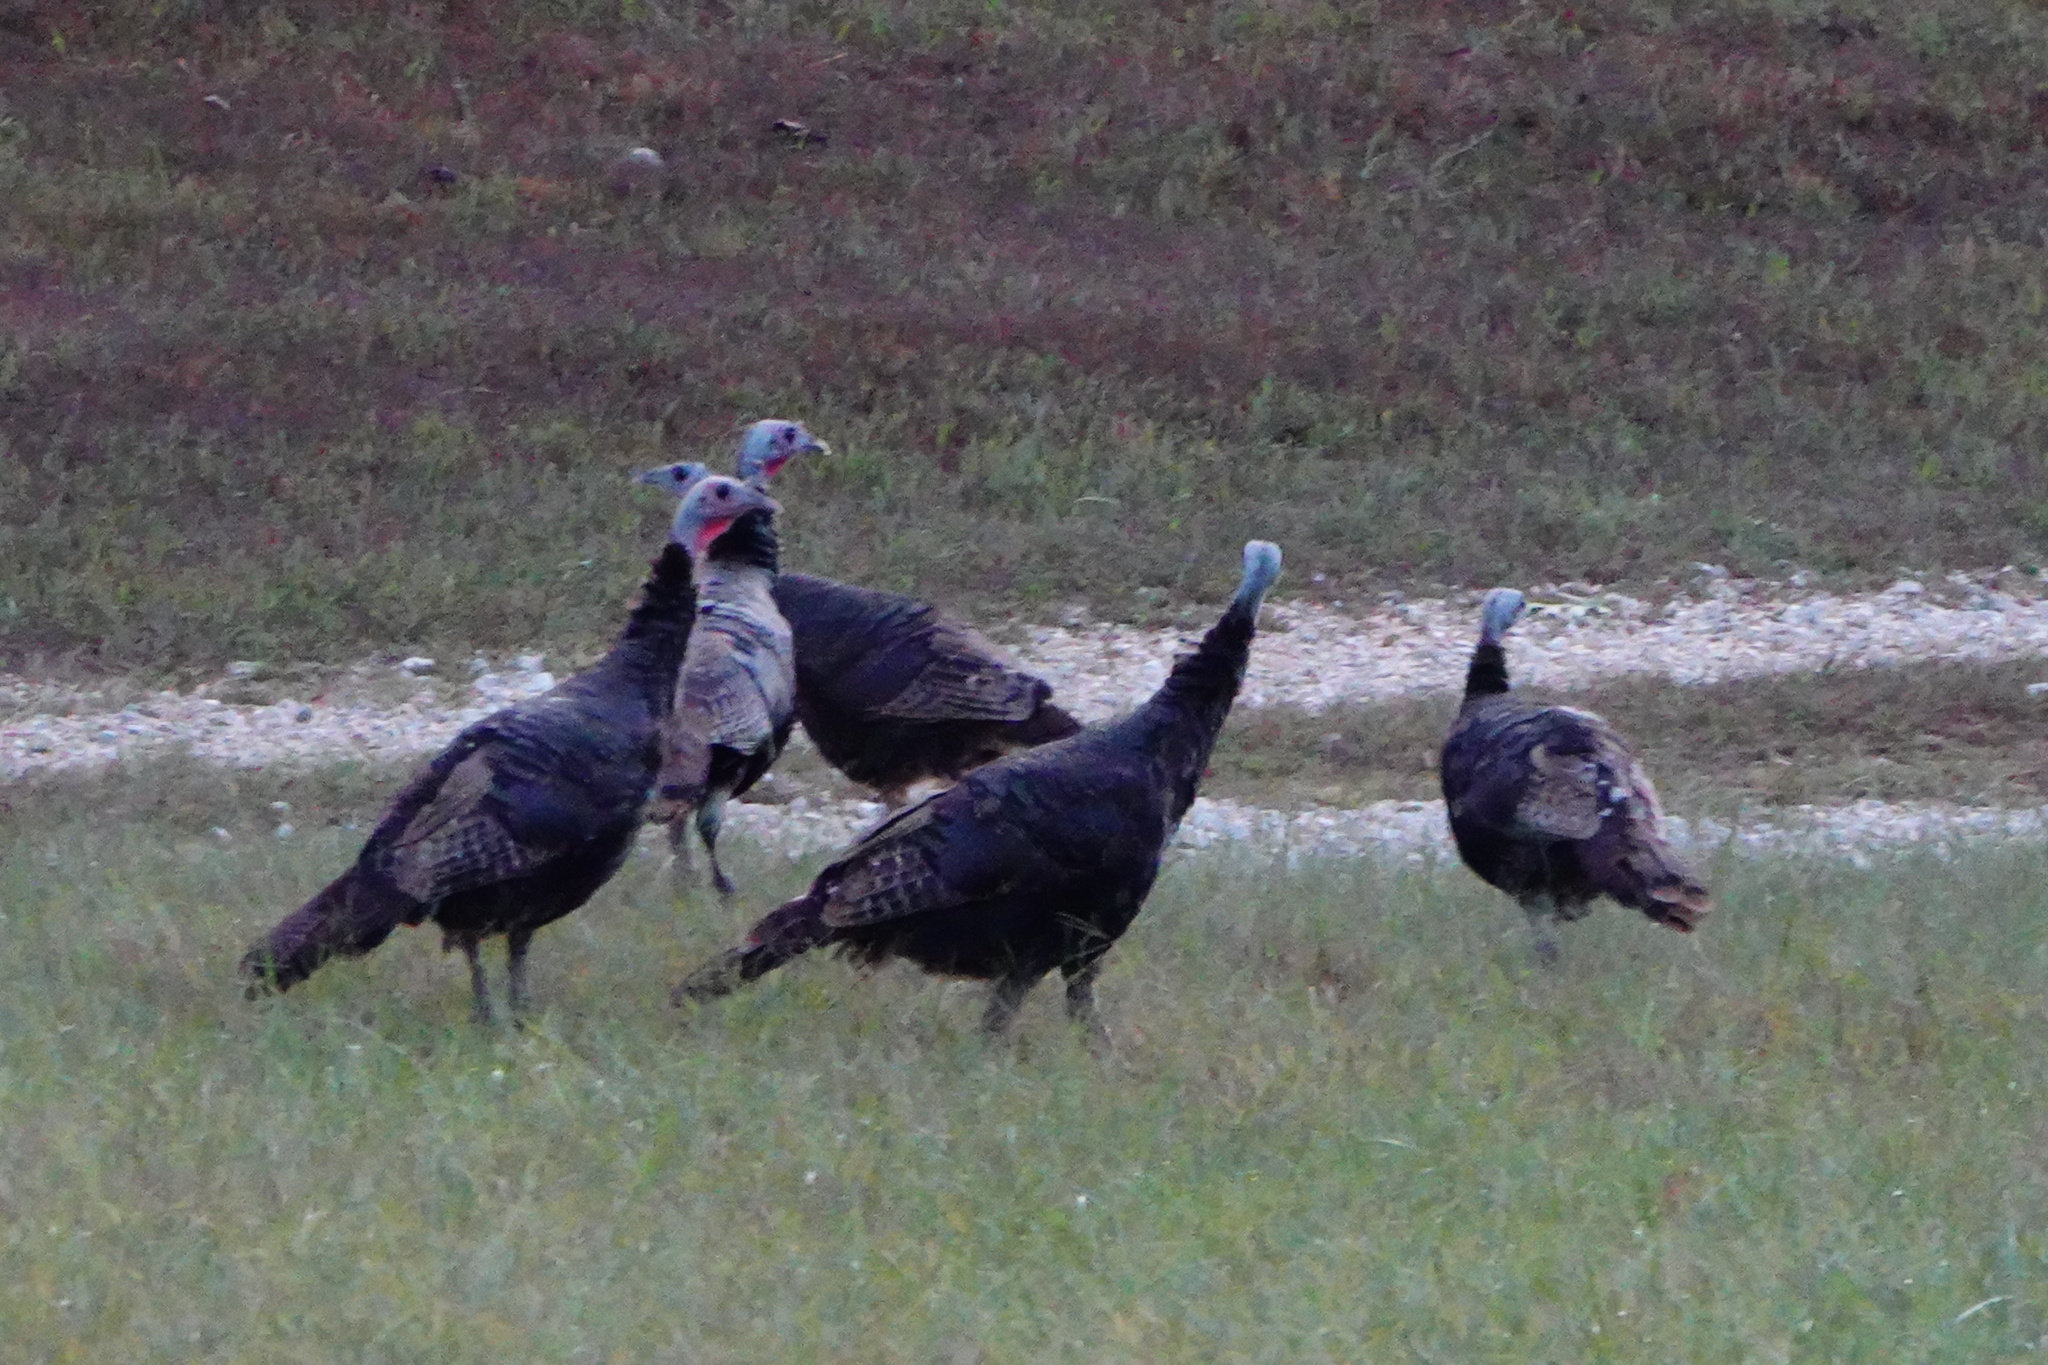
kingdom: Animalia
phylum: Chordata
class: Aves
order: Galliformes
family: Phasianidae
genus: Meleagris
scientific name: Meleagris gallopavo
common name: Wild turkey
